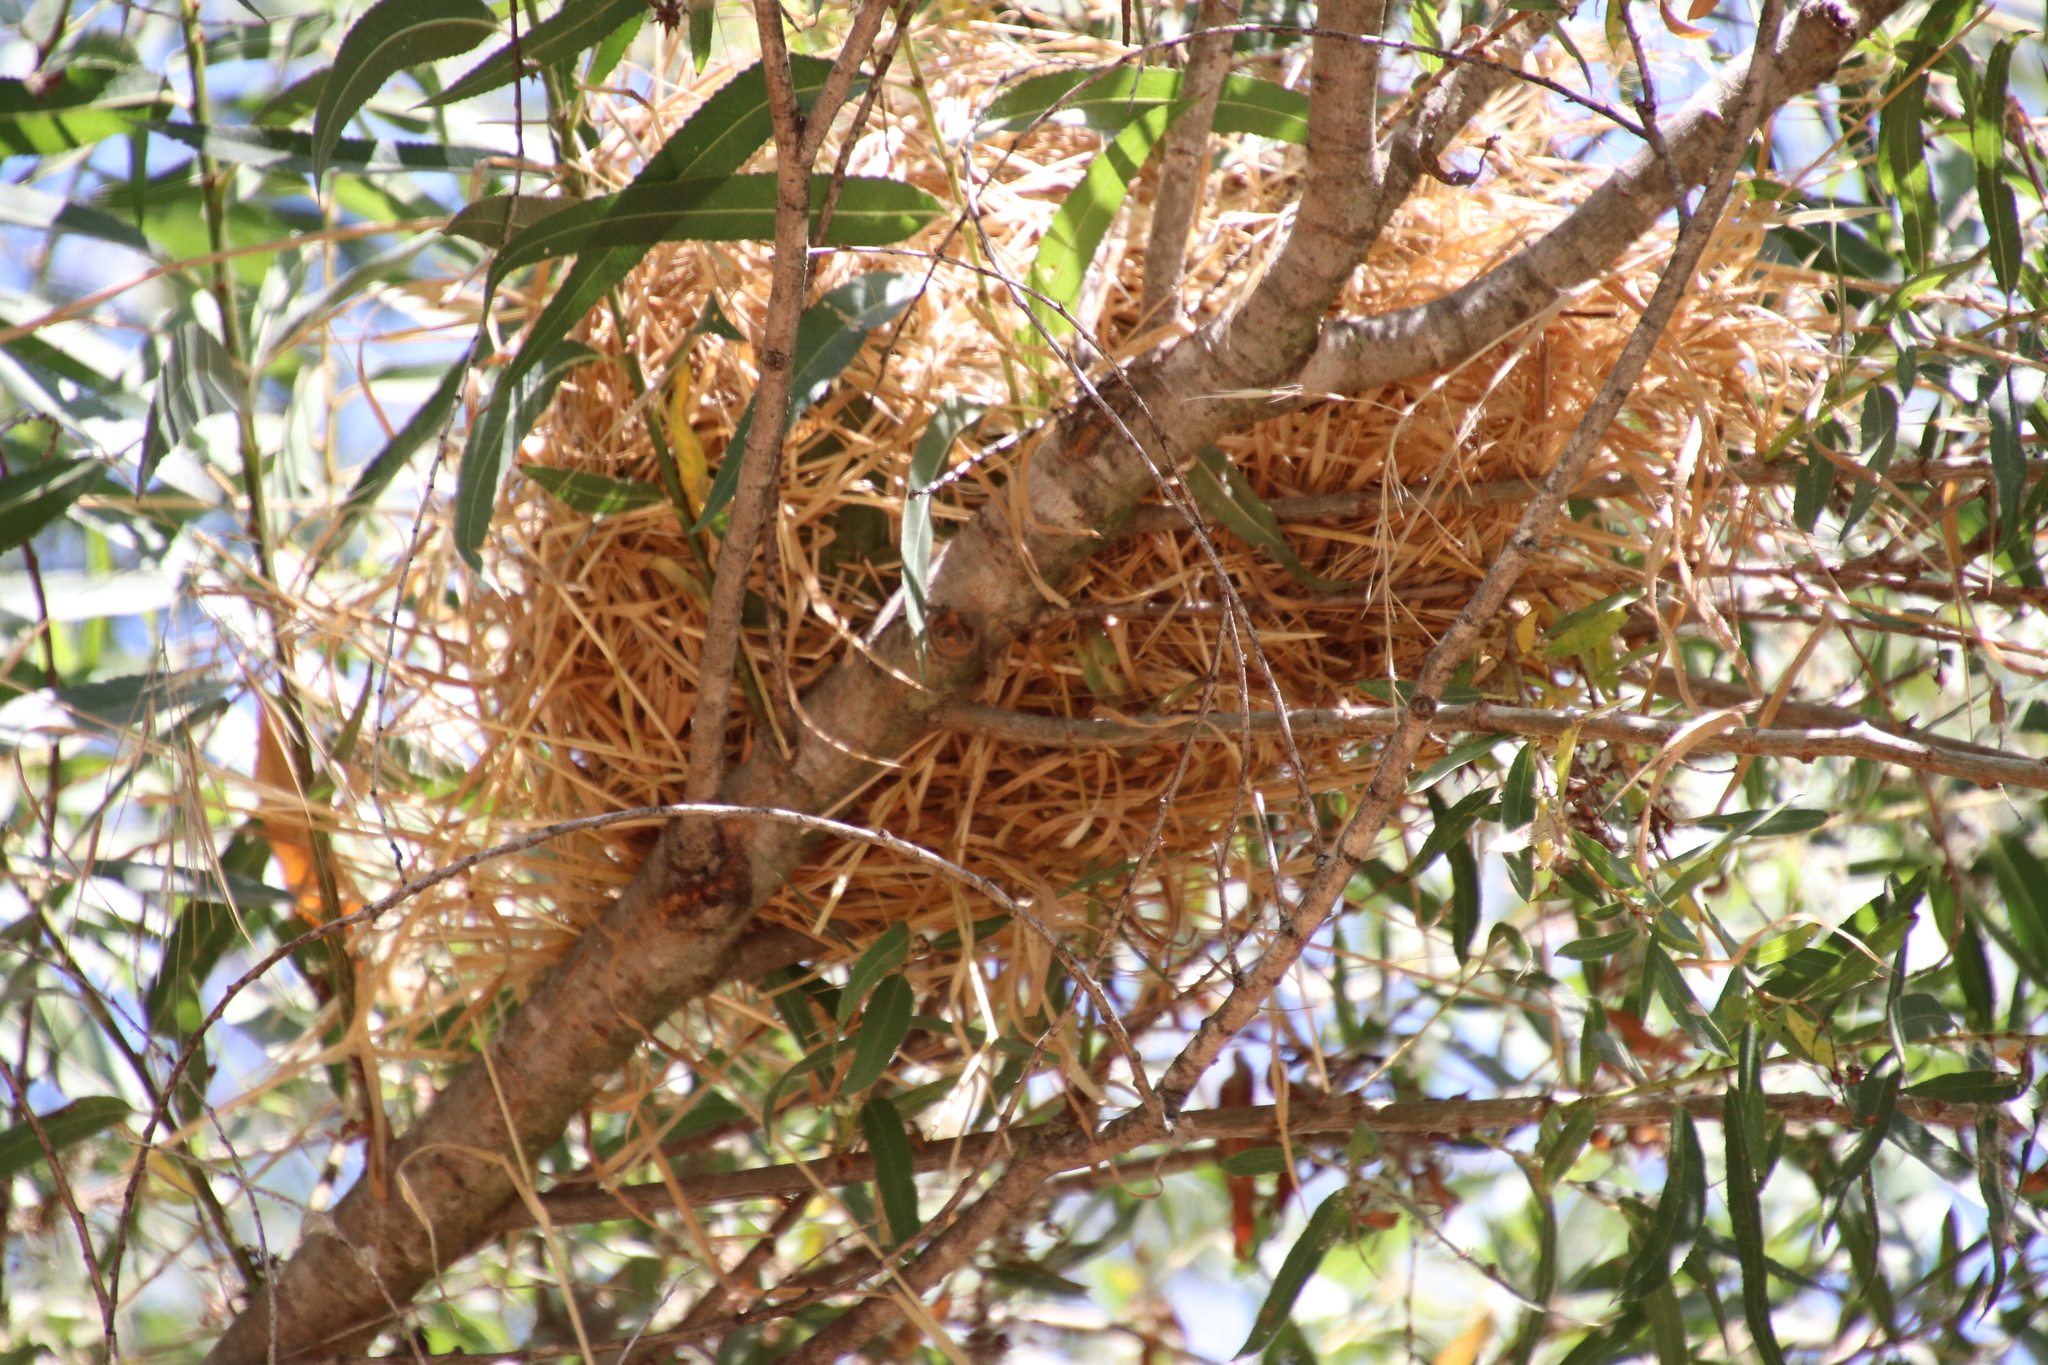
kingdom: Animalia
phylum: Chordata
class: Aves
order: Passeriformes
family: Estrildidae
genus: Lonchura
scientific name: Lonchura punctulata
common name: Scaly-breasted munia
